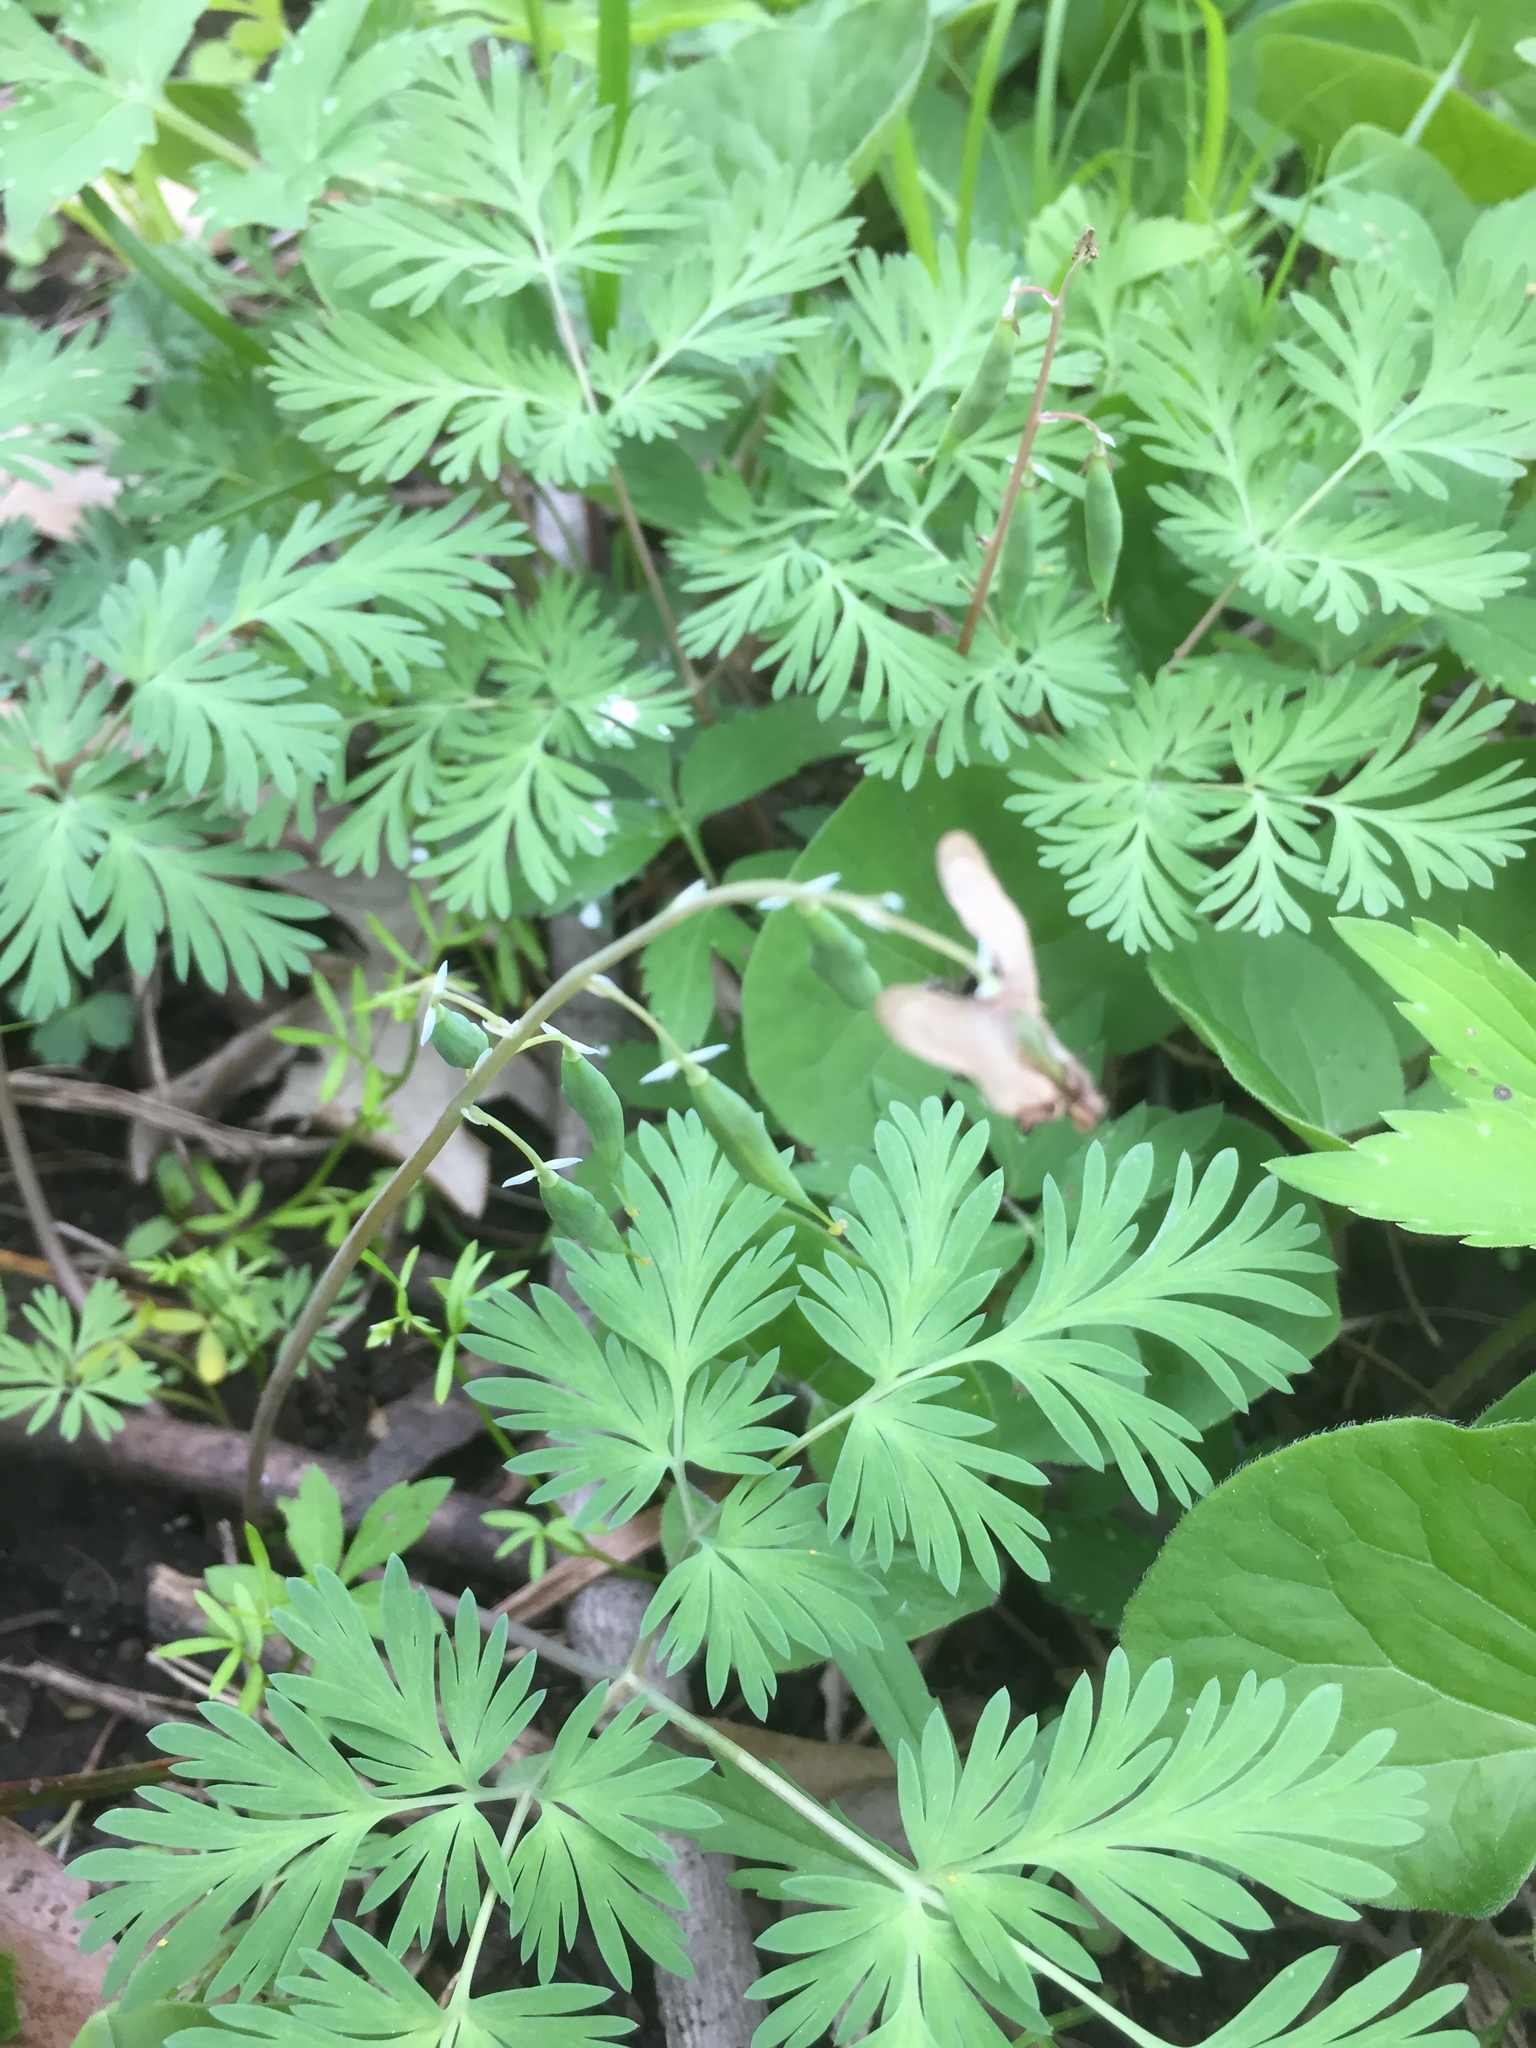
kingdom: Plantae
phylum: Tracheophyta
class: Magnoliopsida
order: Ranunculales
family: Papaveraceae
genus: Dicentra
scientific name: Dicentra cucullaria
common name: Dutchman's breeches
